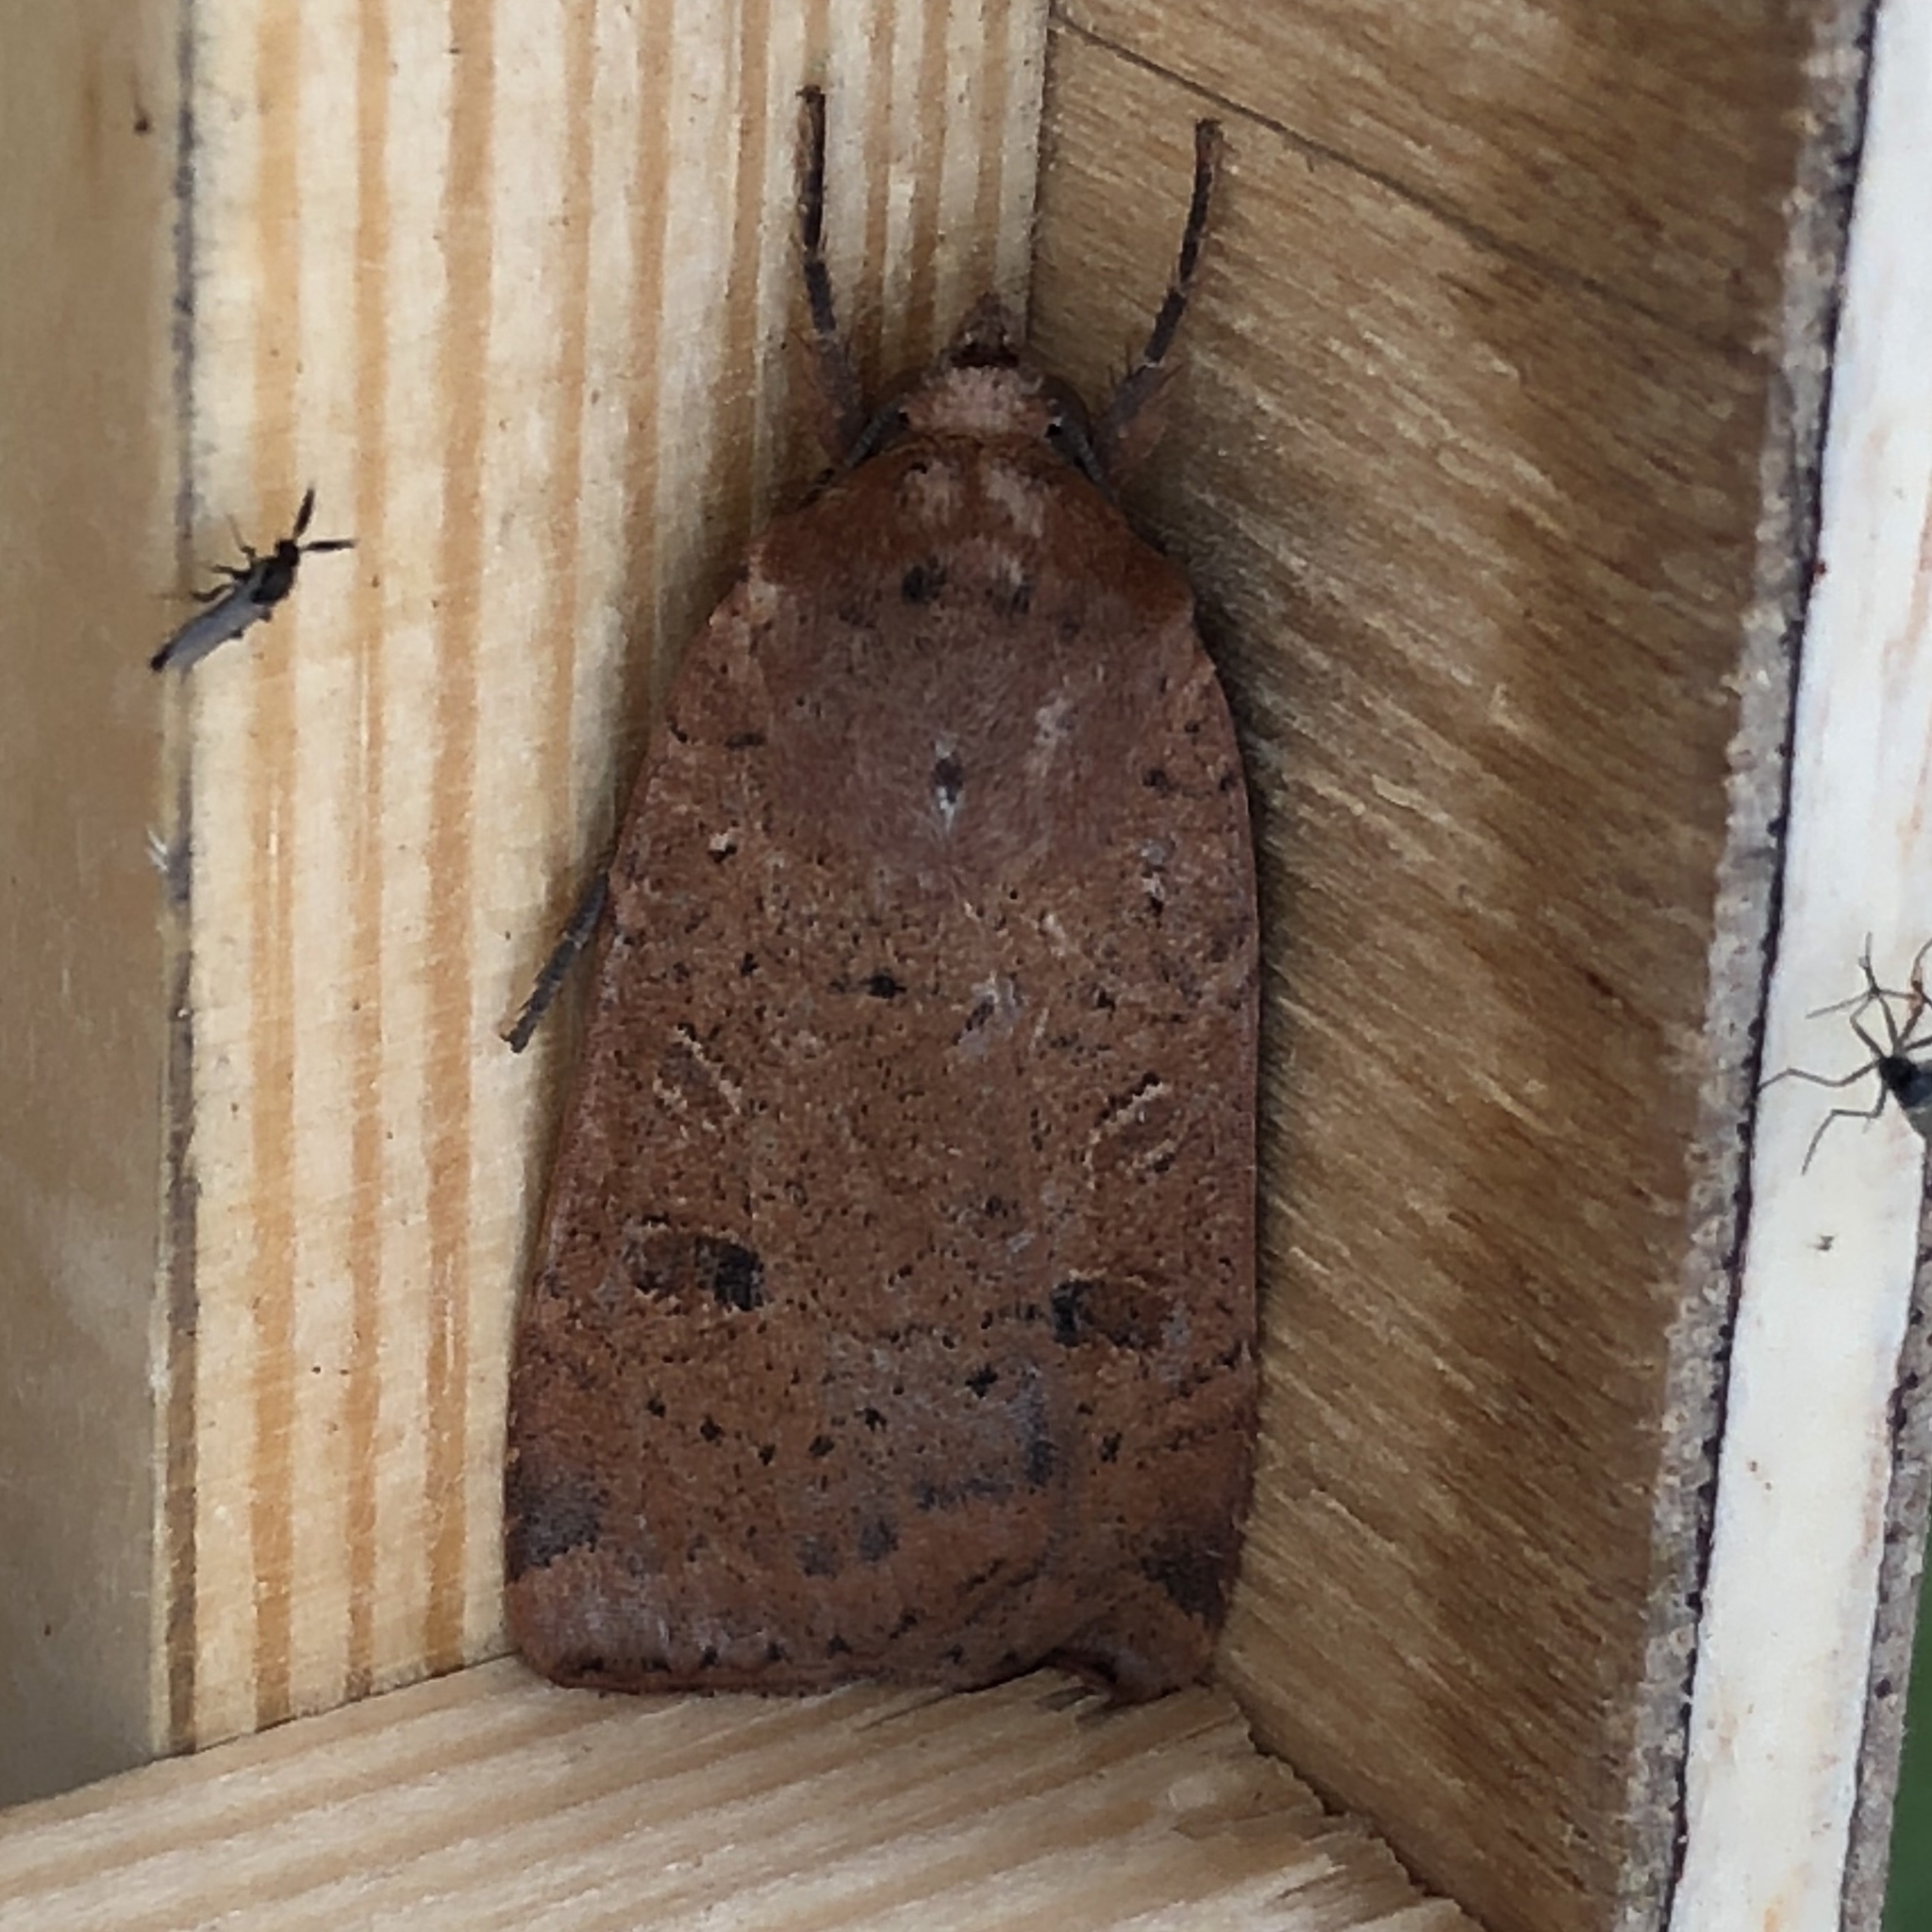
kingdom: Animalia
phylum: Arthropoda
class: Insecta
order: Lepidoptera
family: Noctuidae
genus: Noctua
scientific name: Noctua comes
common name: Lesser yellow underwing
